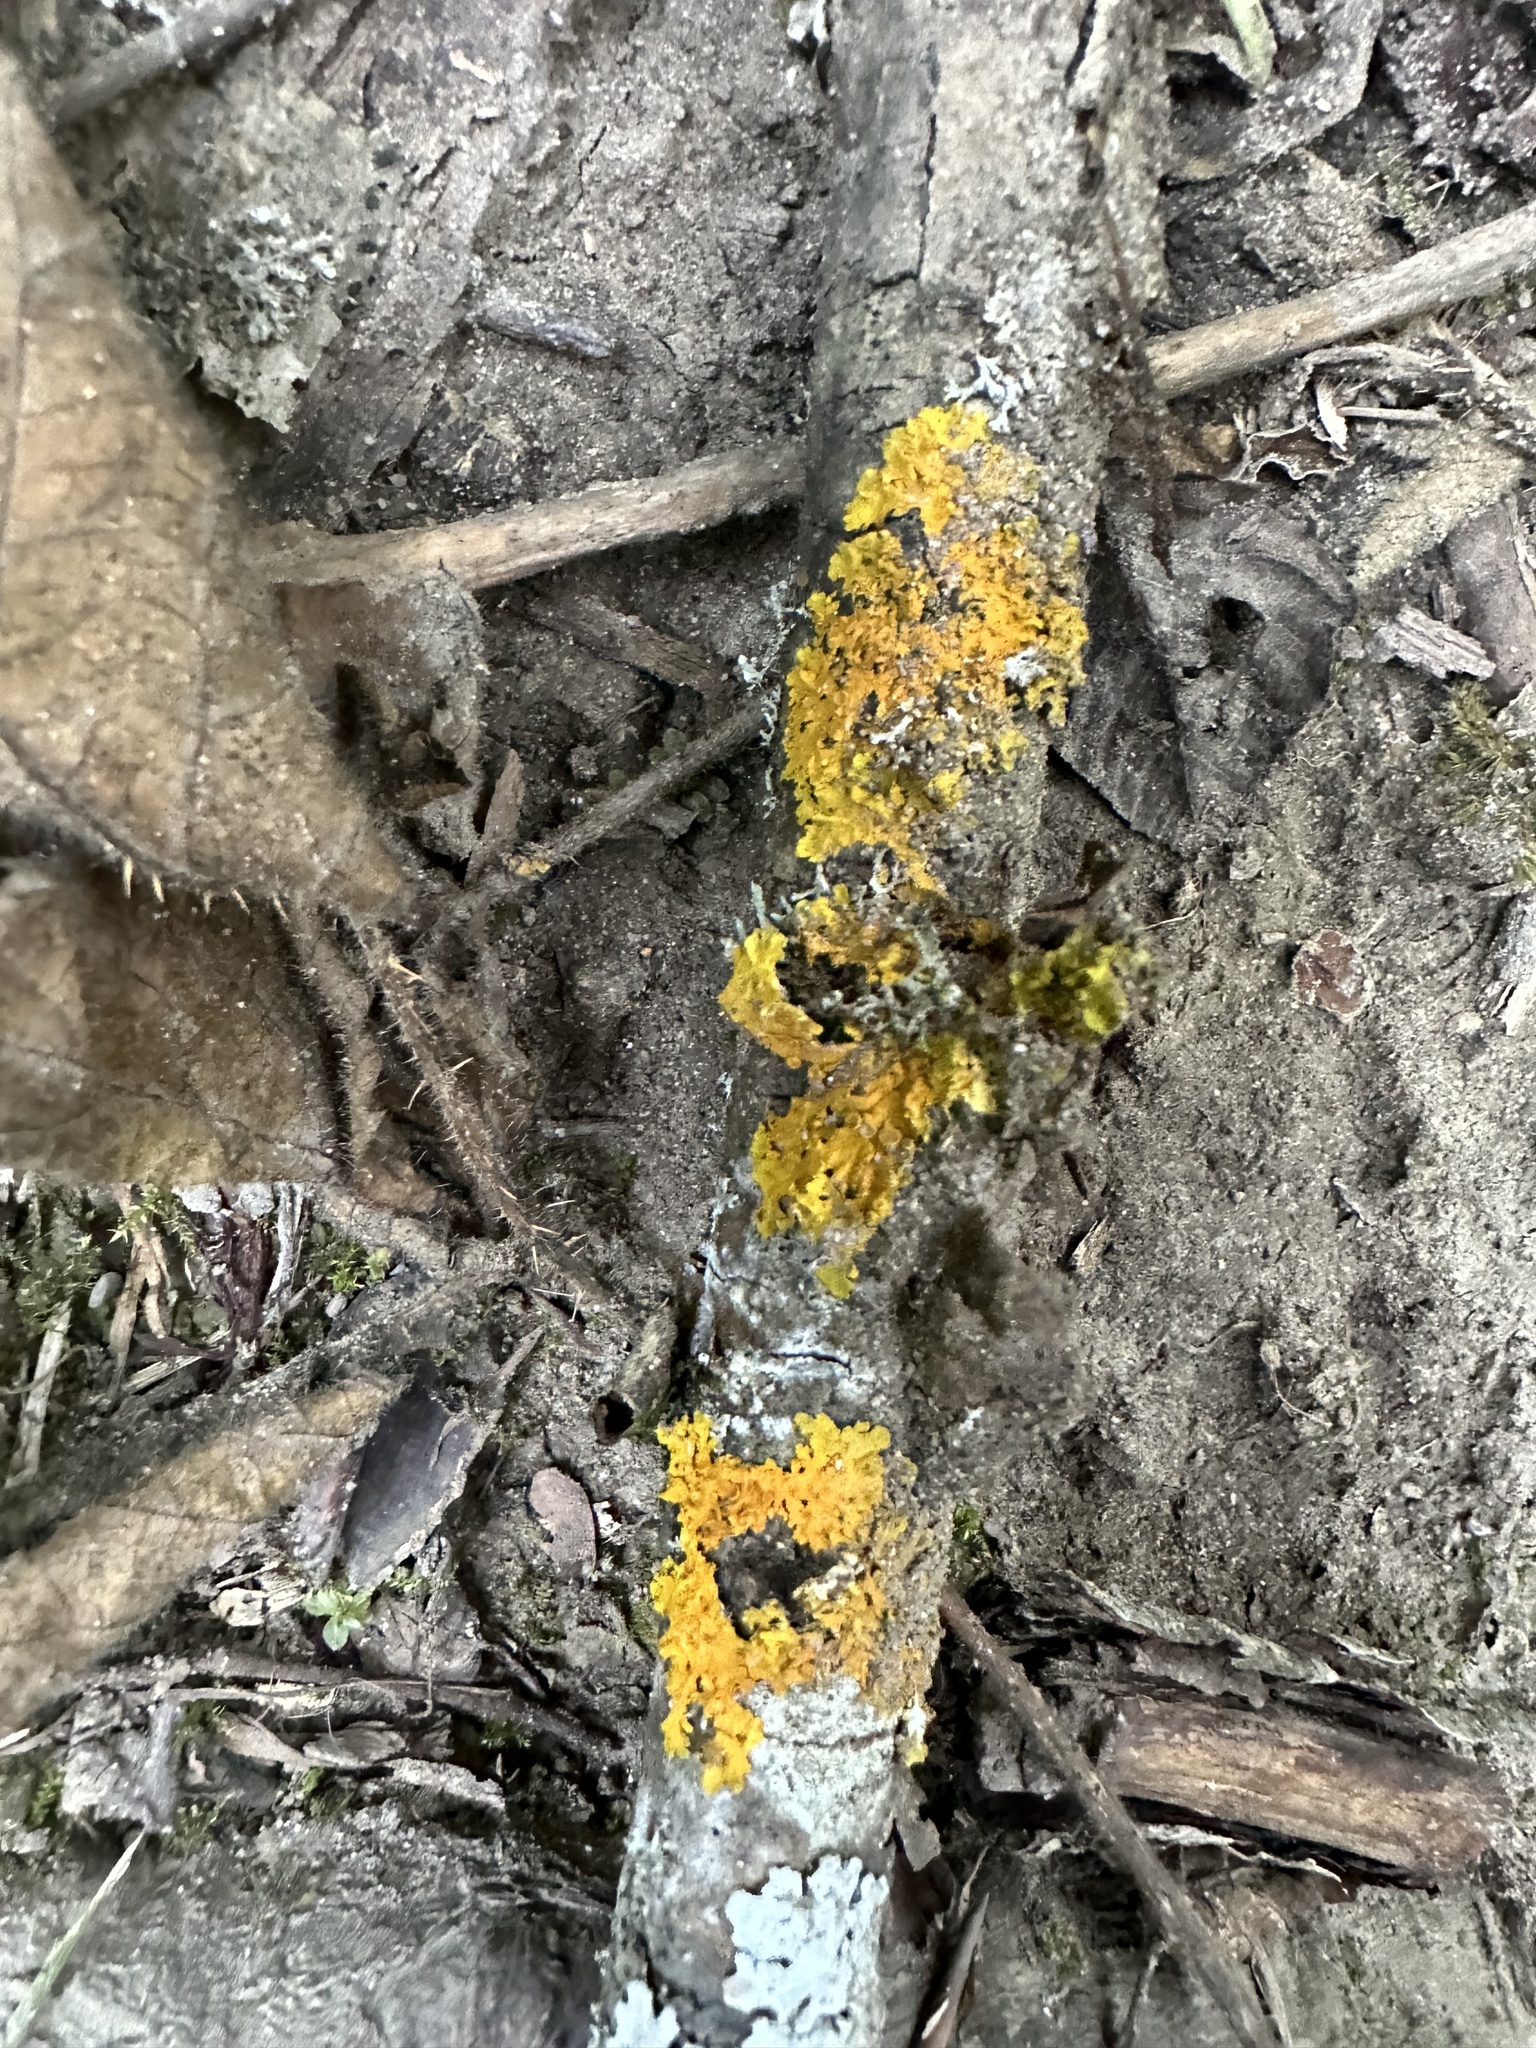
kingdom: Fungi
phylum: Ascomycota
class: Lecanoromycetes
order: Teloschistales
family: Teloschistaceae
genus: Xanthoria
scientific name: Xanthoria parietina
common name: Common orange lichen
